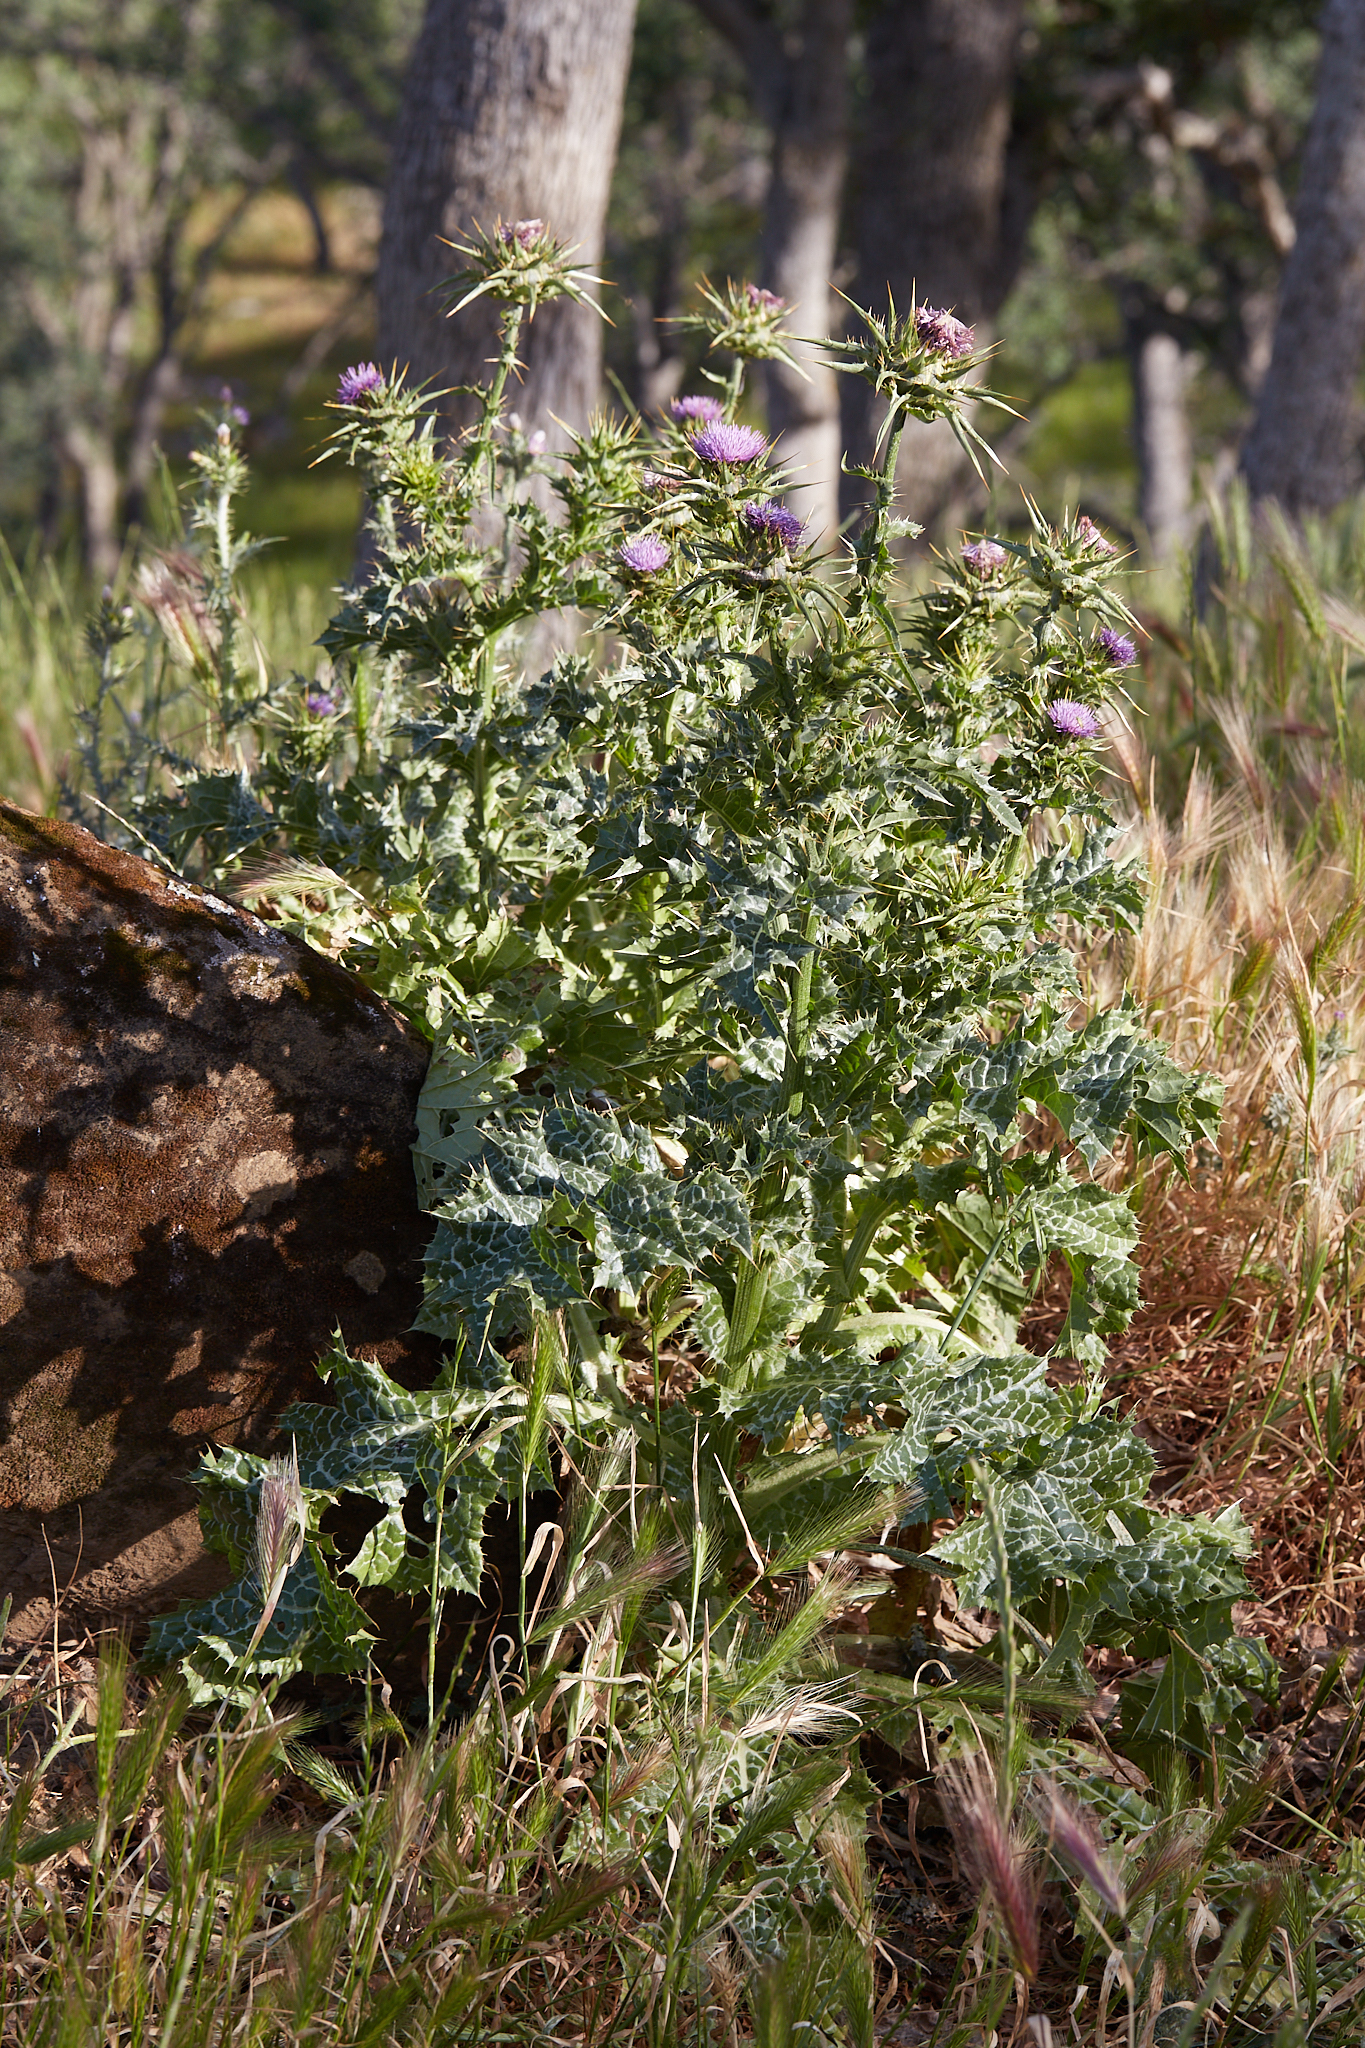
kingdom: Plantae
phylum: Tracheophyta
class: Magnoliopsida
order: Asterales
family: Asteraceae
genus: Silybum
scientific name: Silybum marianum
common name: Milk thistle
